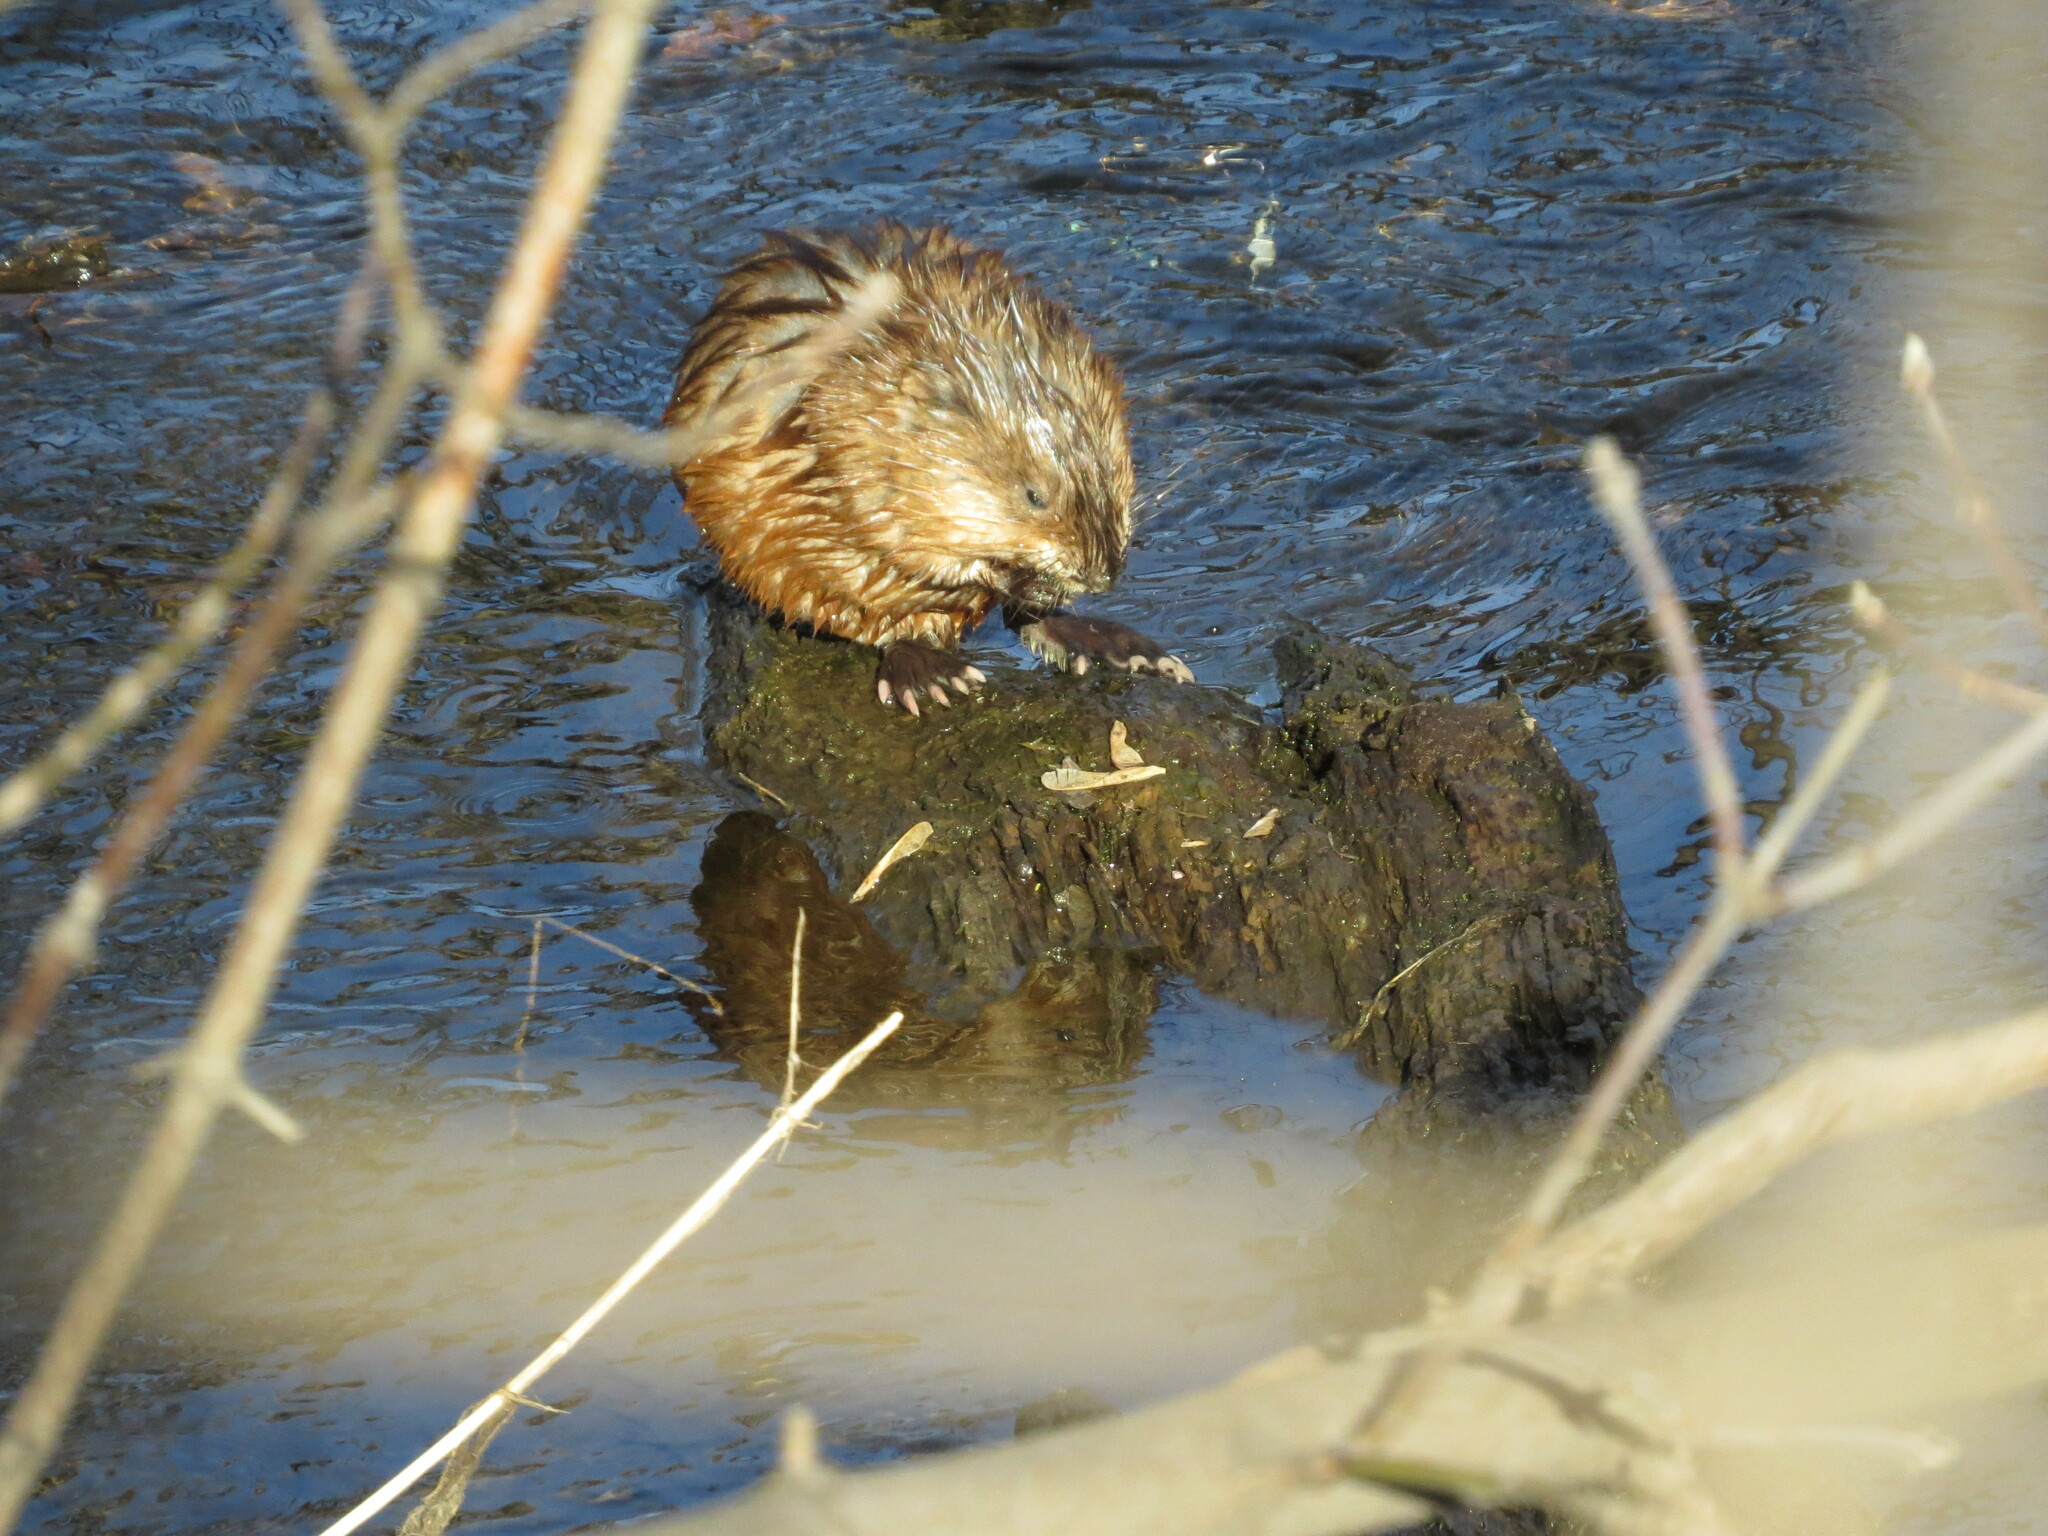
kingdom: Animalia
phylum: Chordata
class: Mammalia
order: Rodentia
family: Cricetidae
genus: Ondatra
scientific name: Ondatra zibethicus
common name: Muskrat
